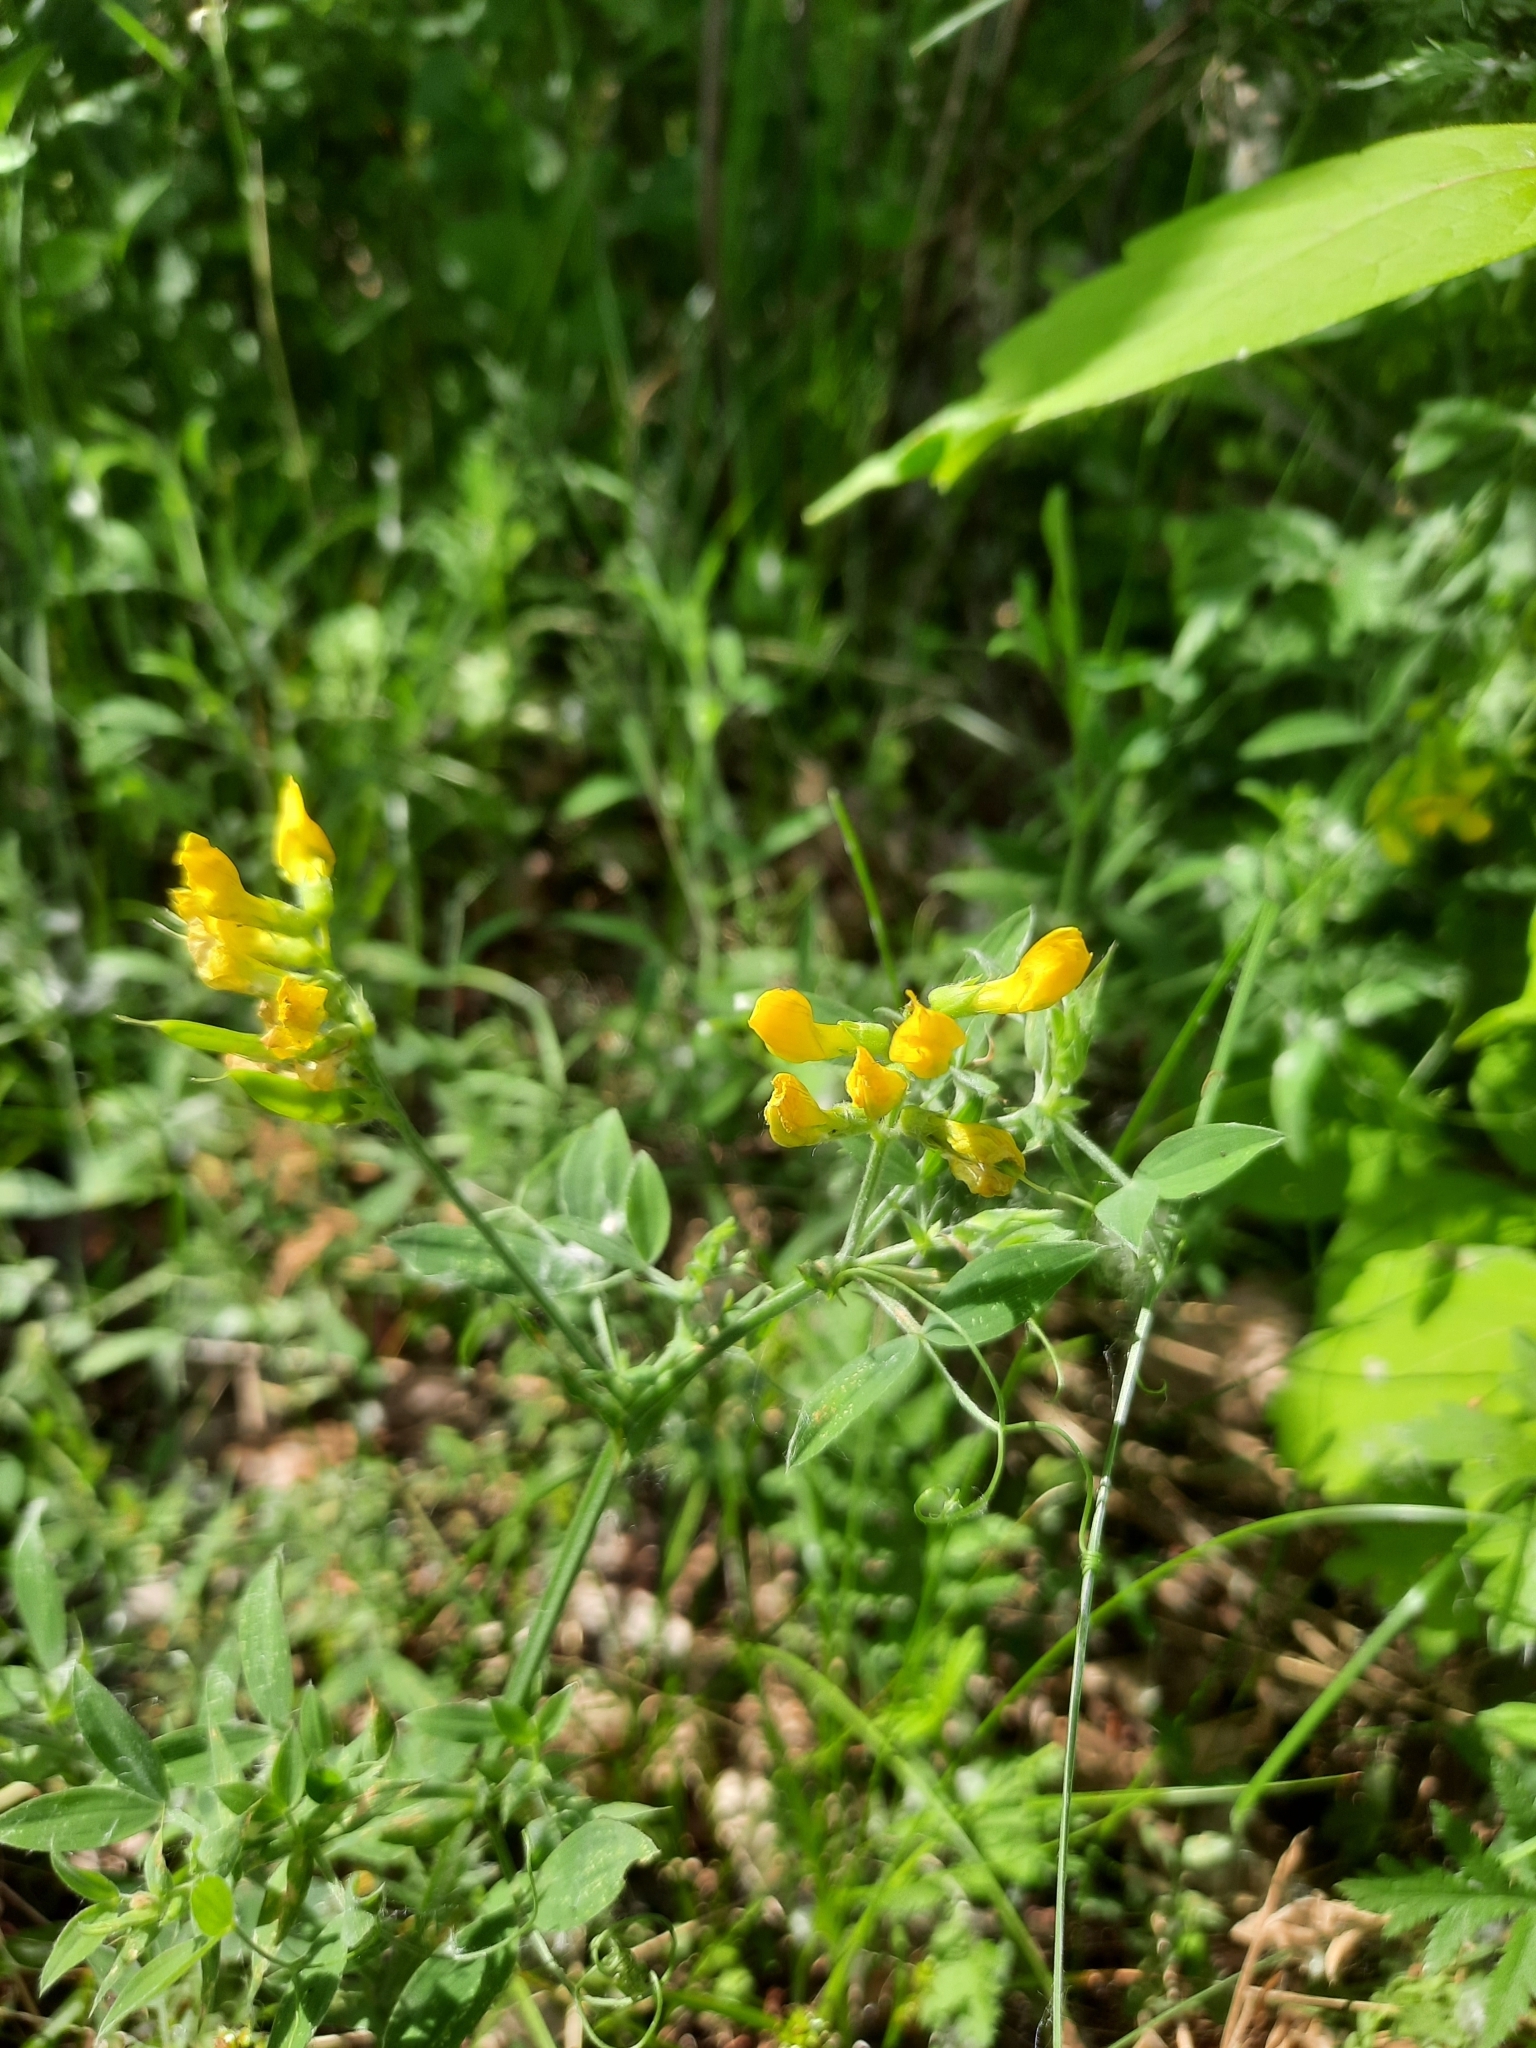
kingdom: Plantae
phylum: Tracheophyta
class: Magnoliopsida
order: Fabales
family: Fabaceae
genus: Lathyrus
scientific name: Lathyrus pratensis
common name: Meadow vetchling
